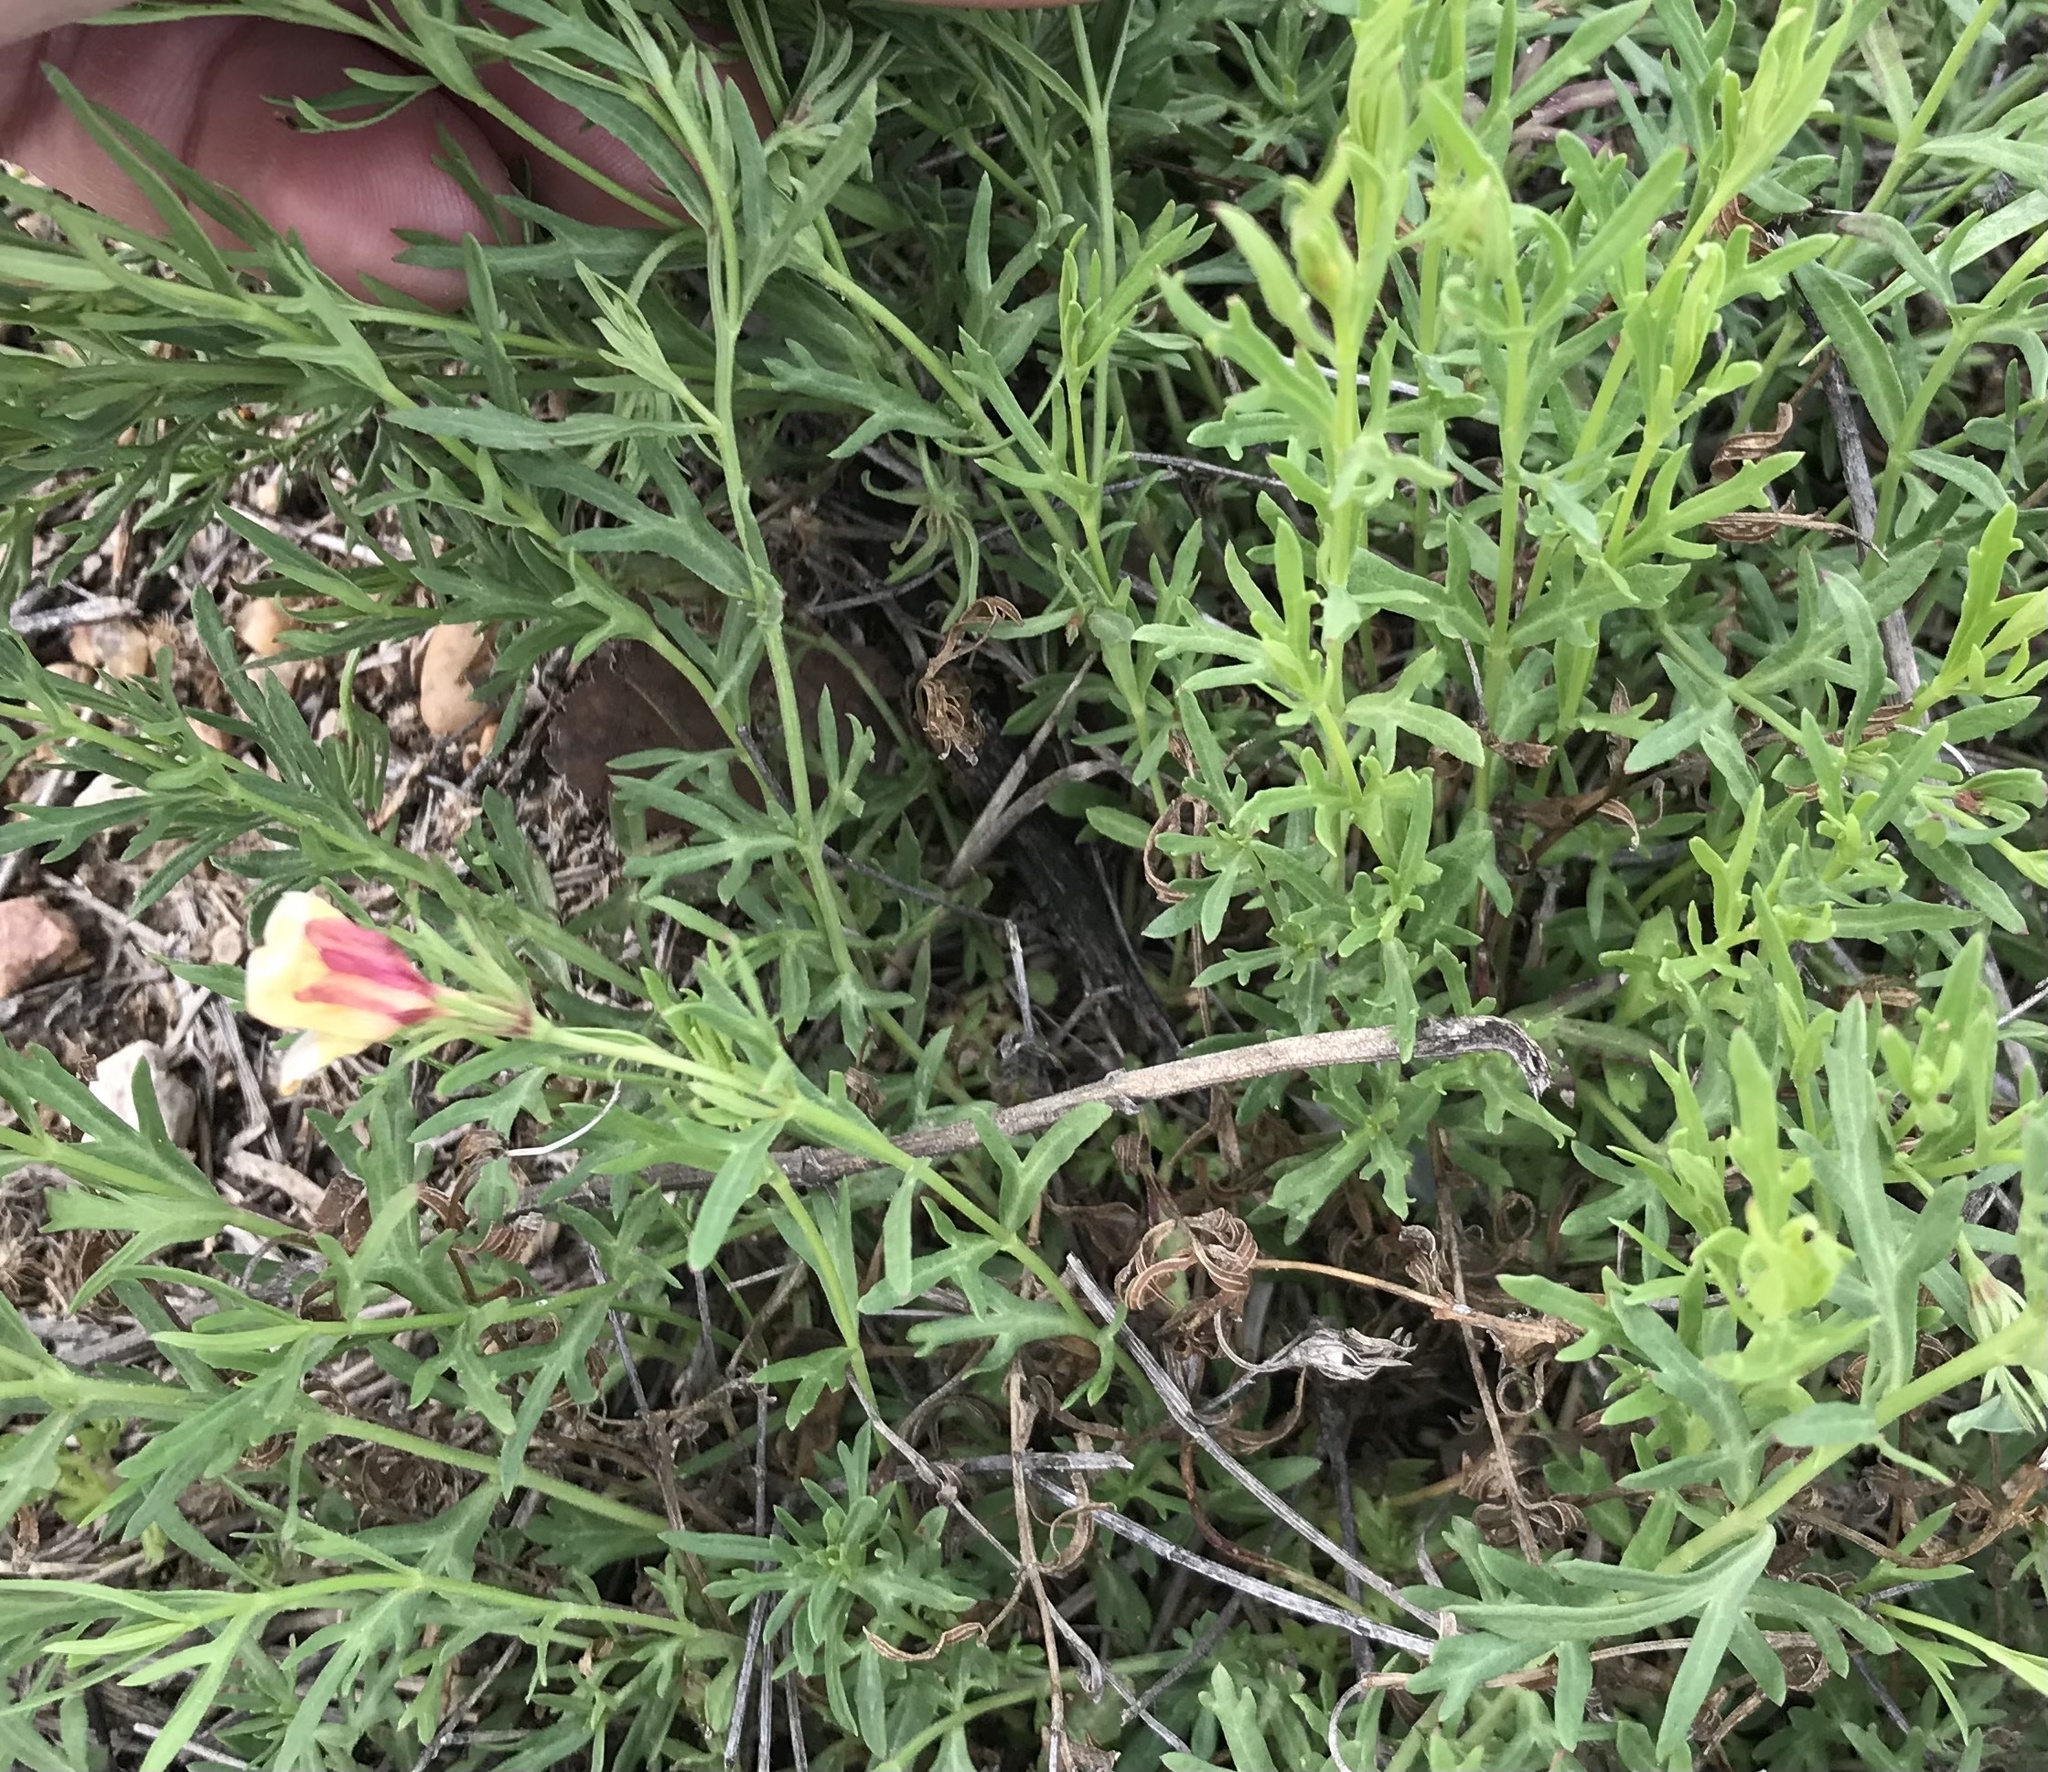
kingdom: Plantae
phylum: Tracheophyta
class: Magnoliopsida
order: Lamiales
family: Oleaceae
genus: Menodora
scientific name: Menodora heterophylla
